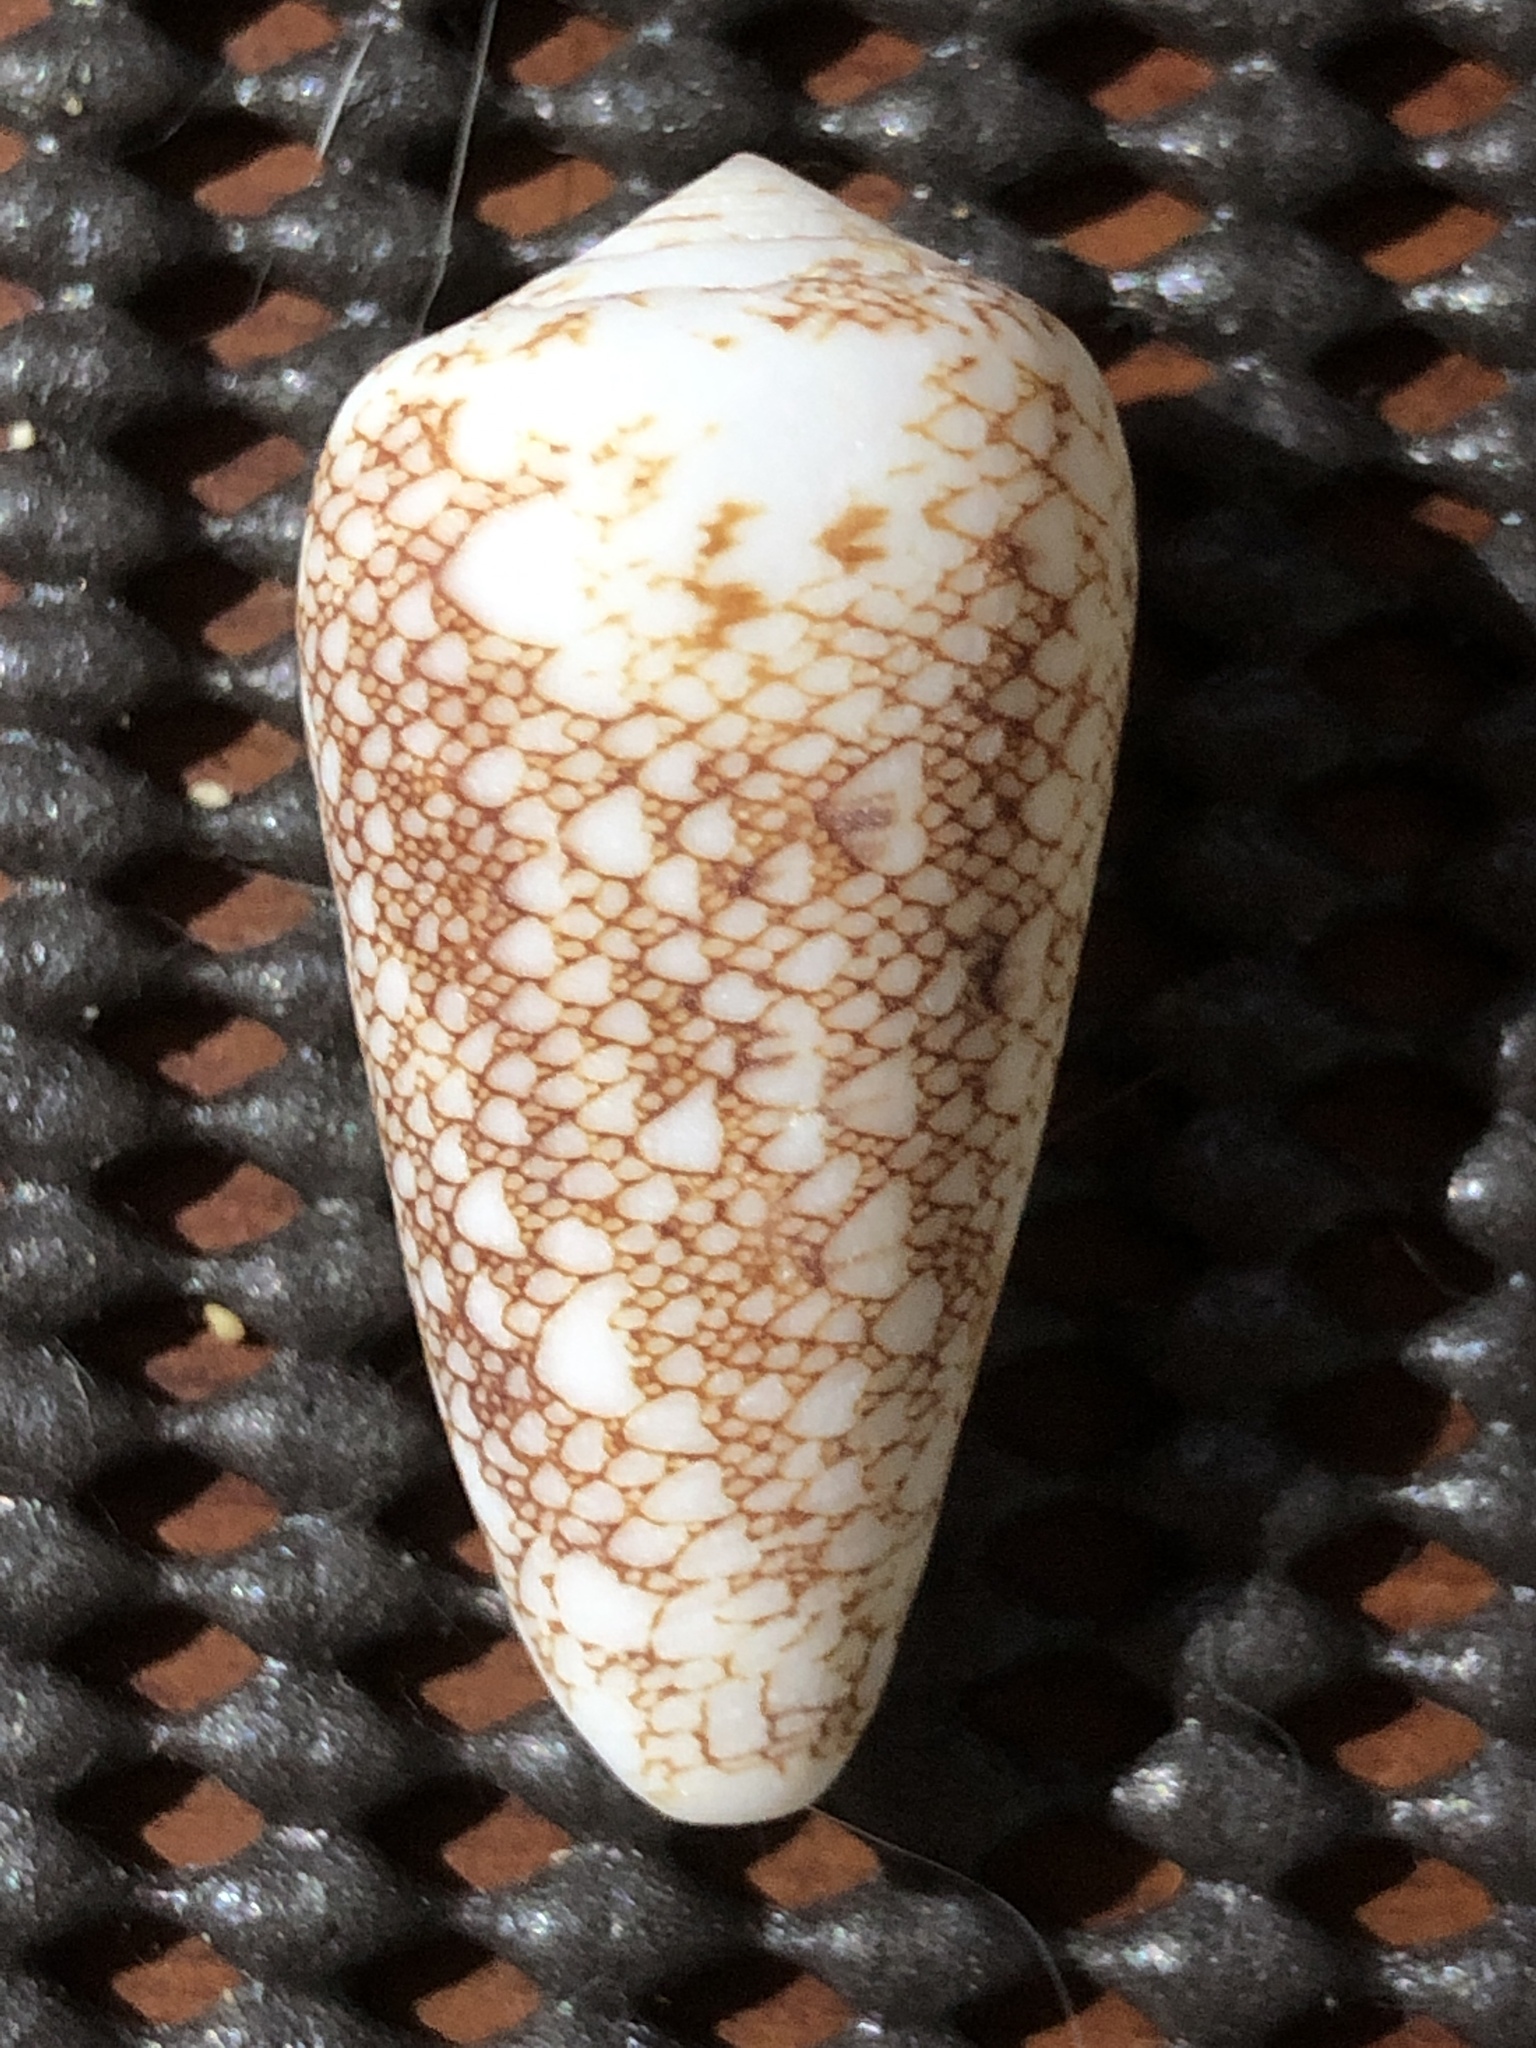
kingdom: Animalia
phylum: Mollusca
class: Gastropoda
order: Neogastropoda
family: Conidae
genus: Conus
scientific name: Conus omaria
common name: Omaria cone
